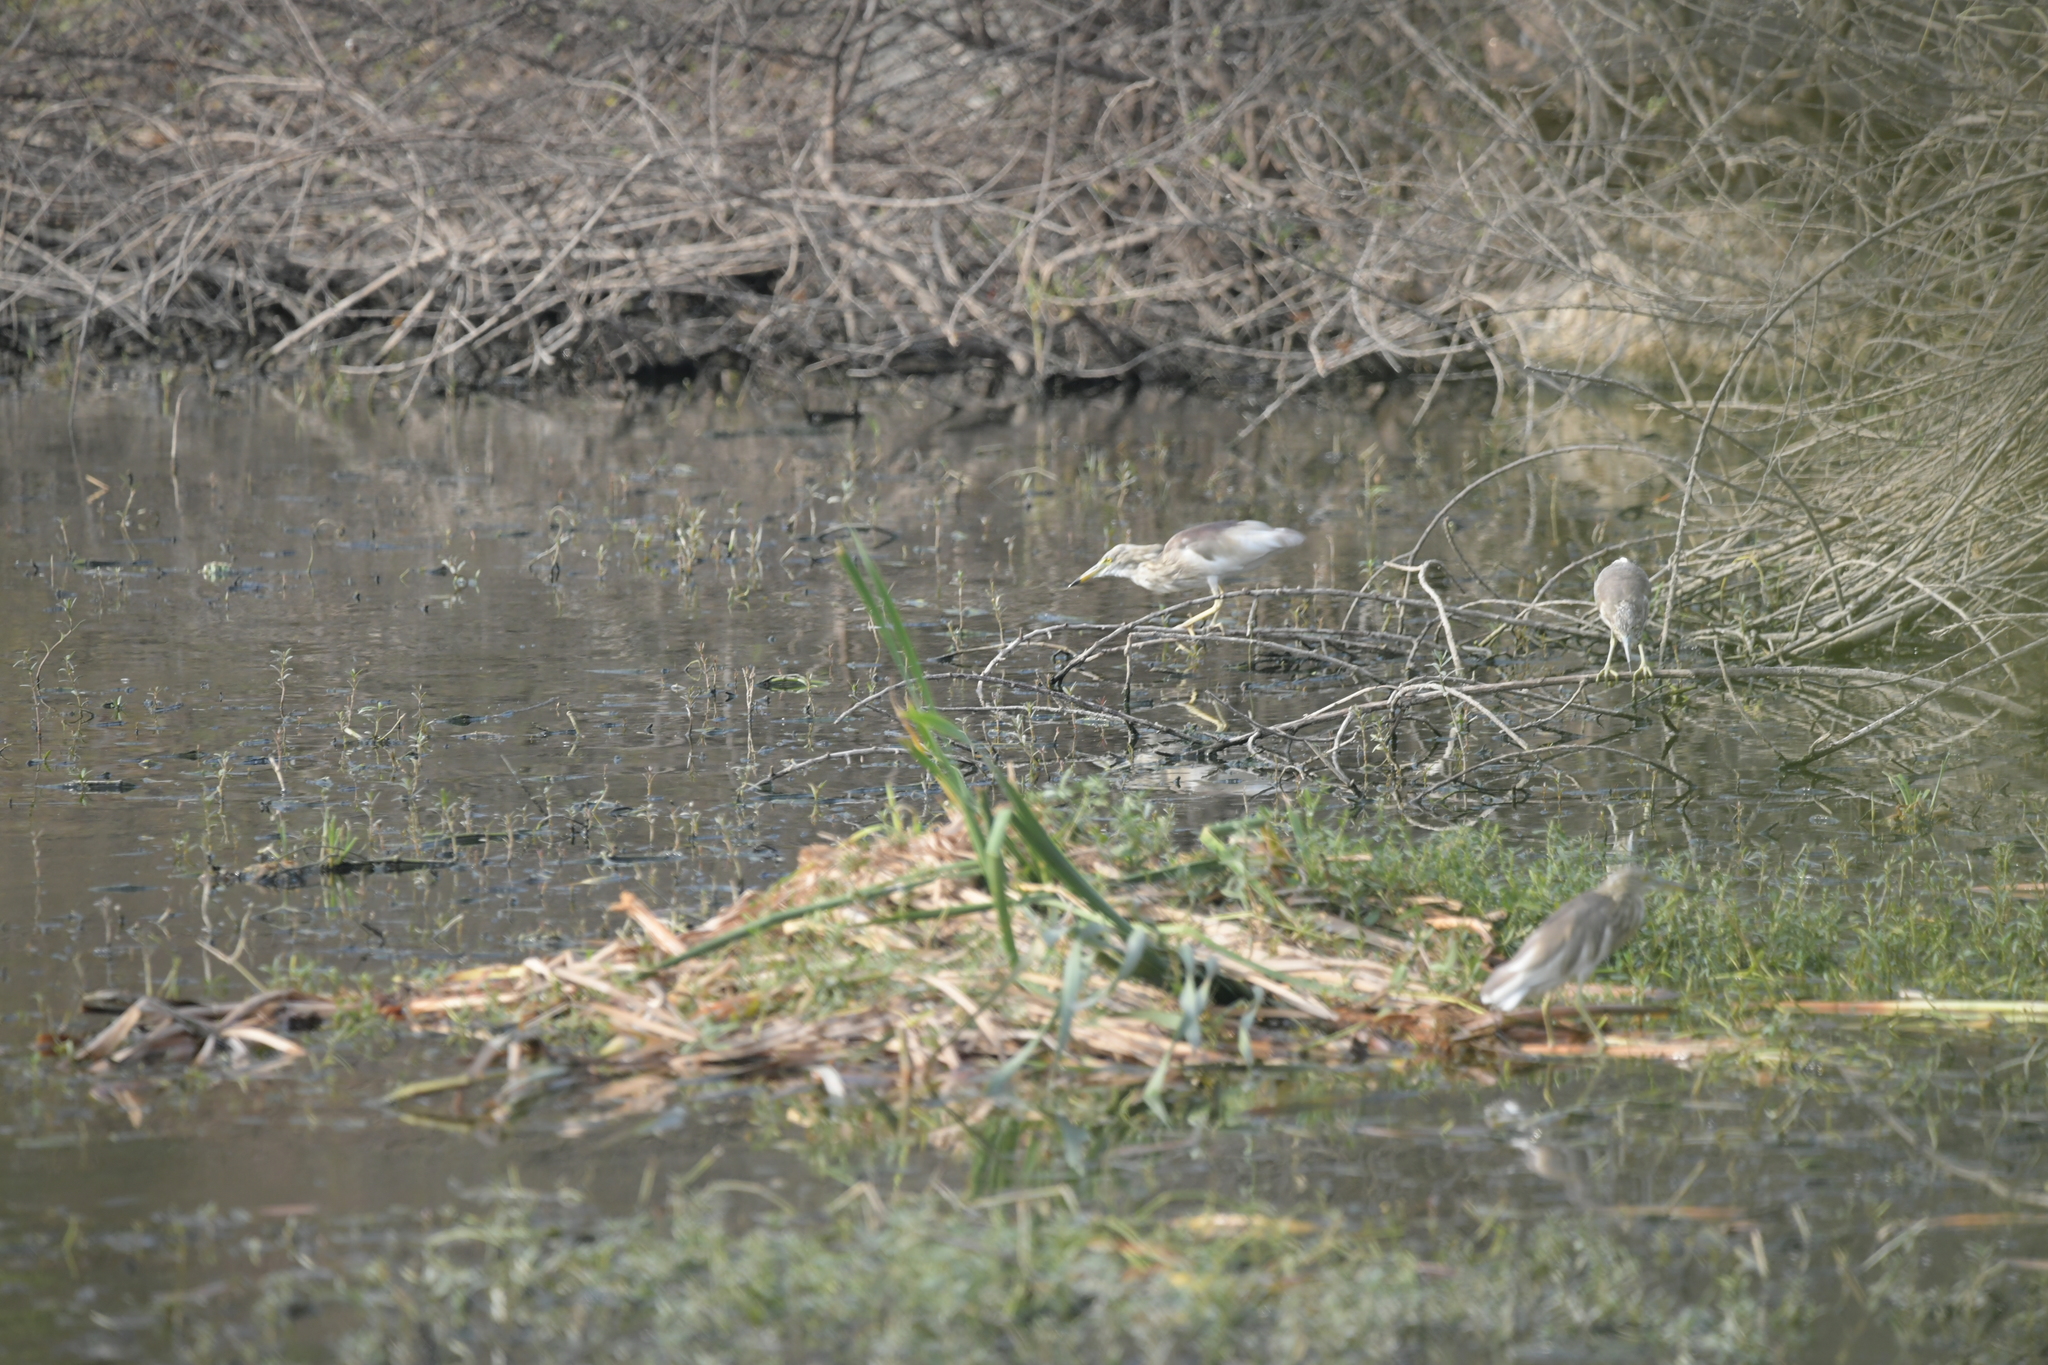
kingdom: Animalia
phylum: Chordata
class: Aves
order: Pelecaniformes
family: Ardeidae
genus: Ardeola
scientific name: Ardeola grayii
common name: Indian pond heron
